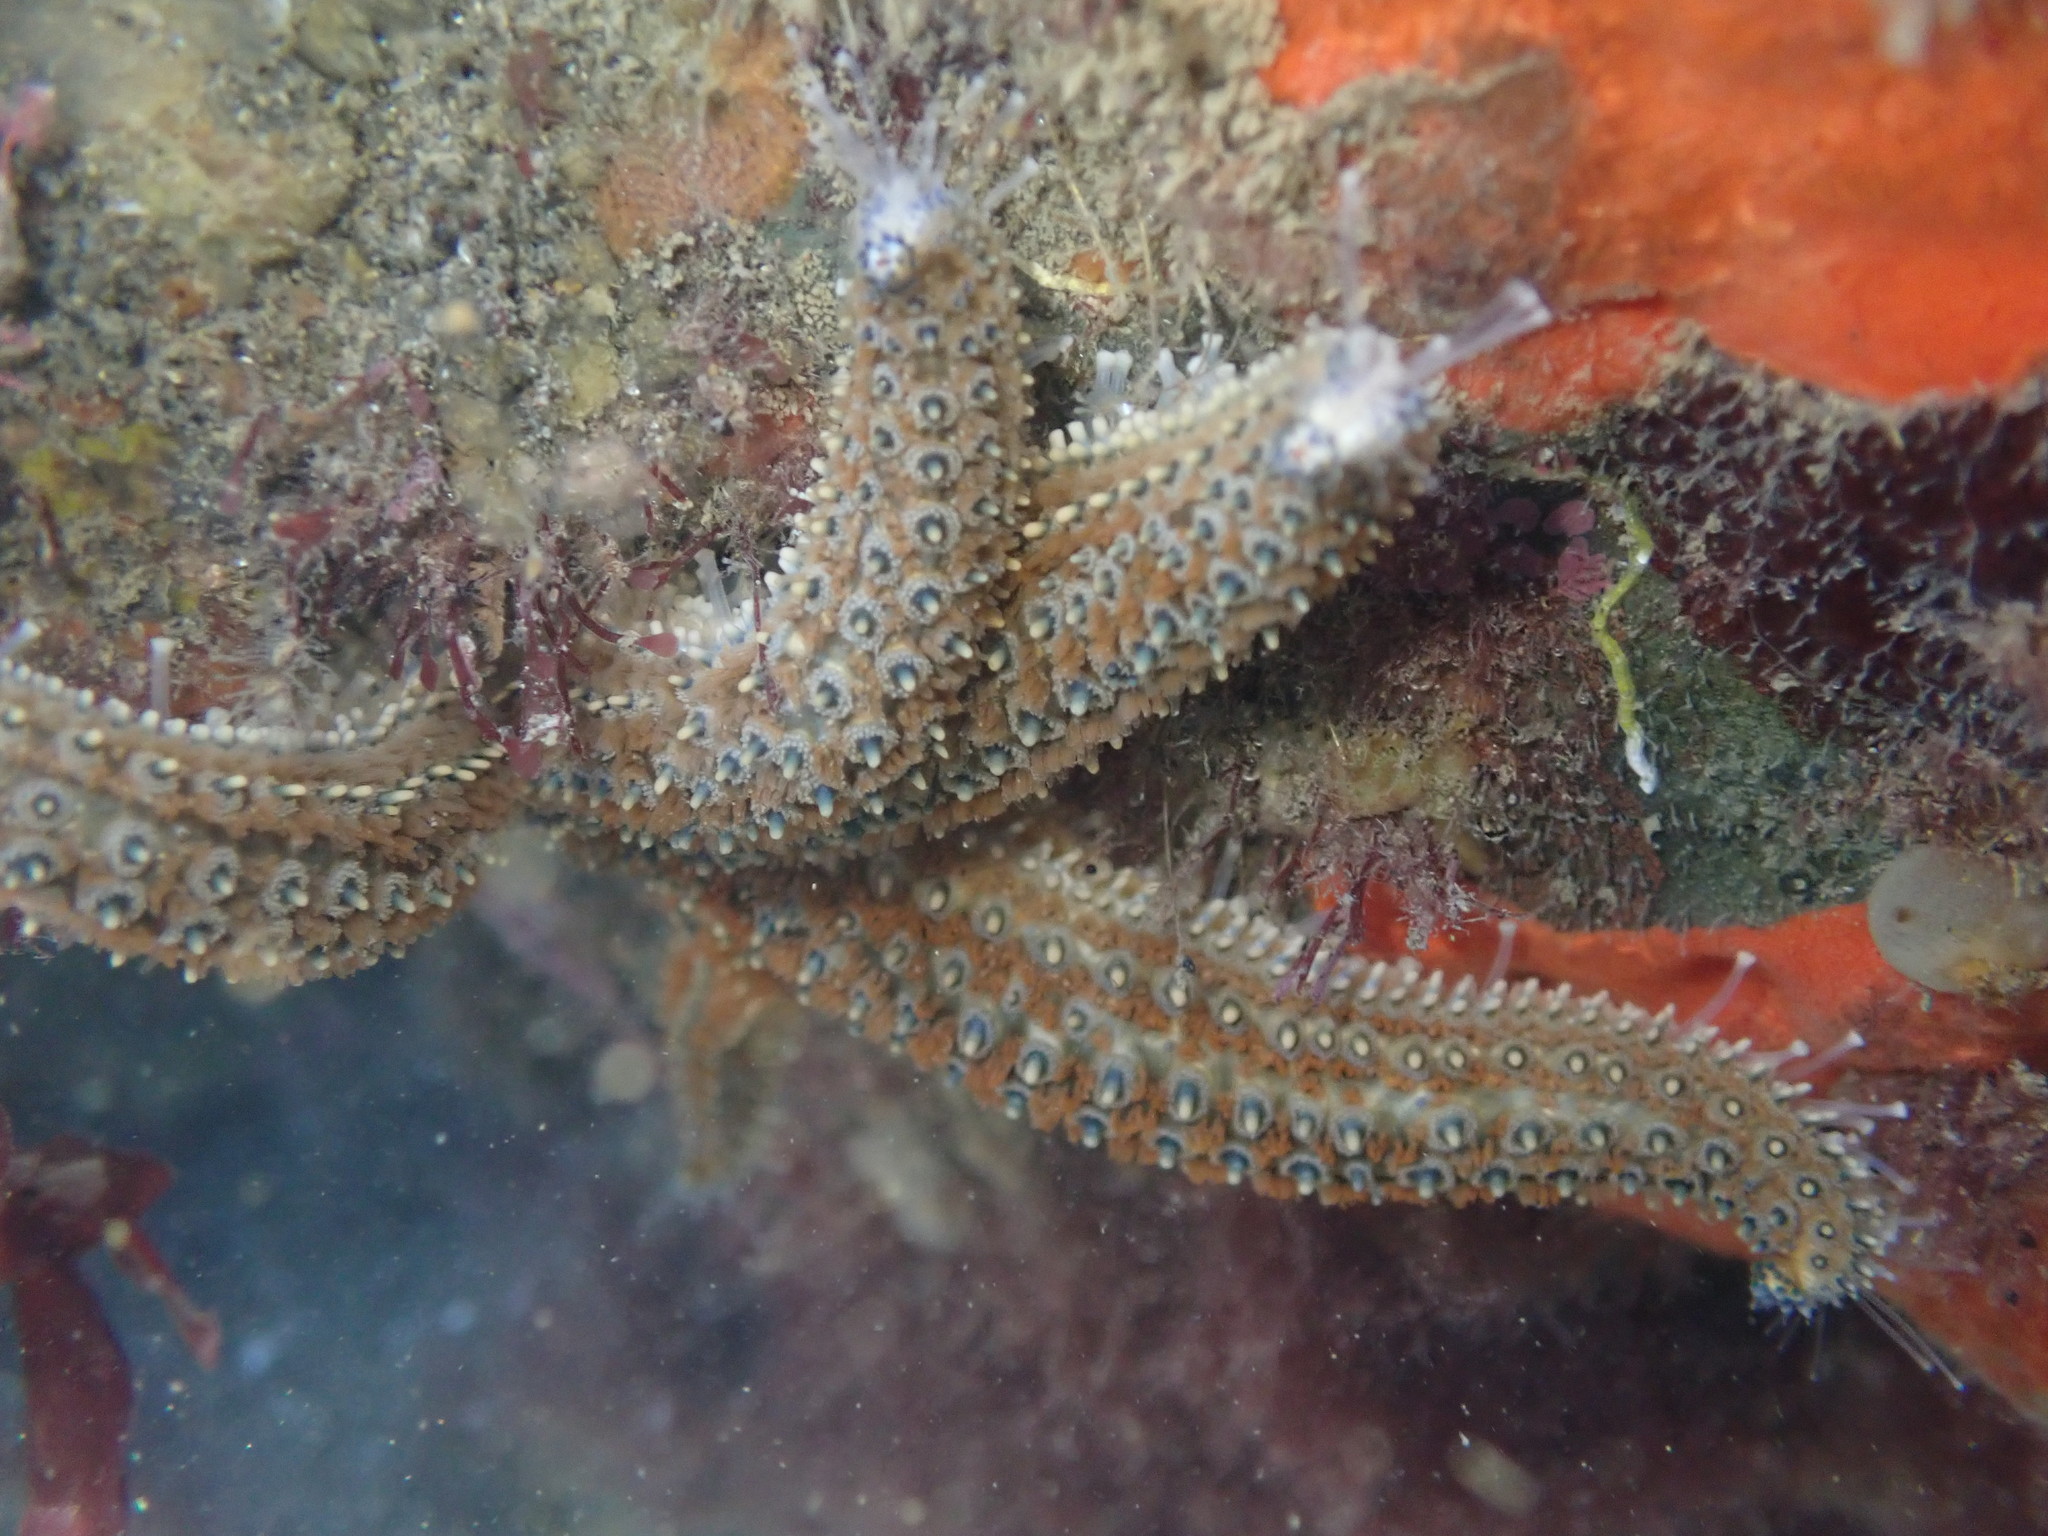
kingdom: Animalia
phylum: Echinodermata
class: Asteroidea
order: Forcipulatida
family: Asteriidae
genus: Coscinasterias
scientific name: Coscinasterias muricata
